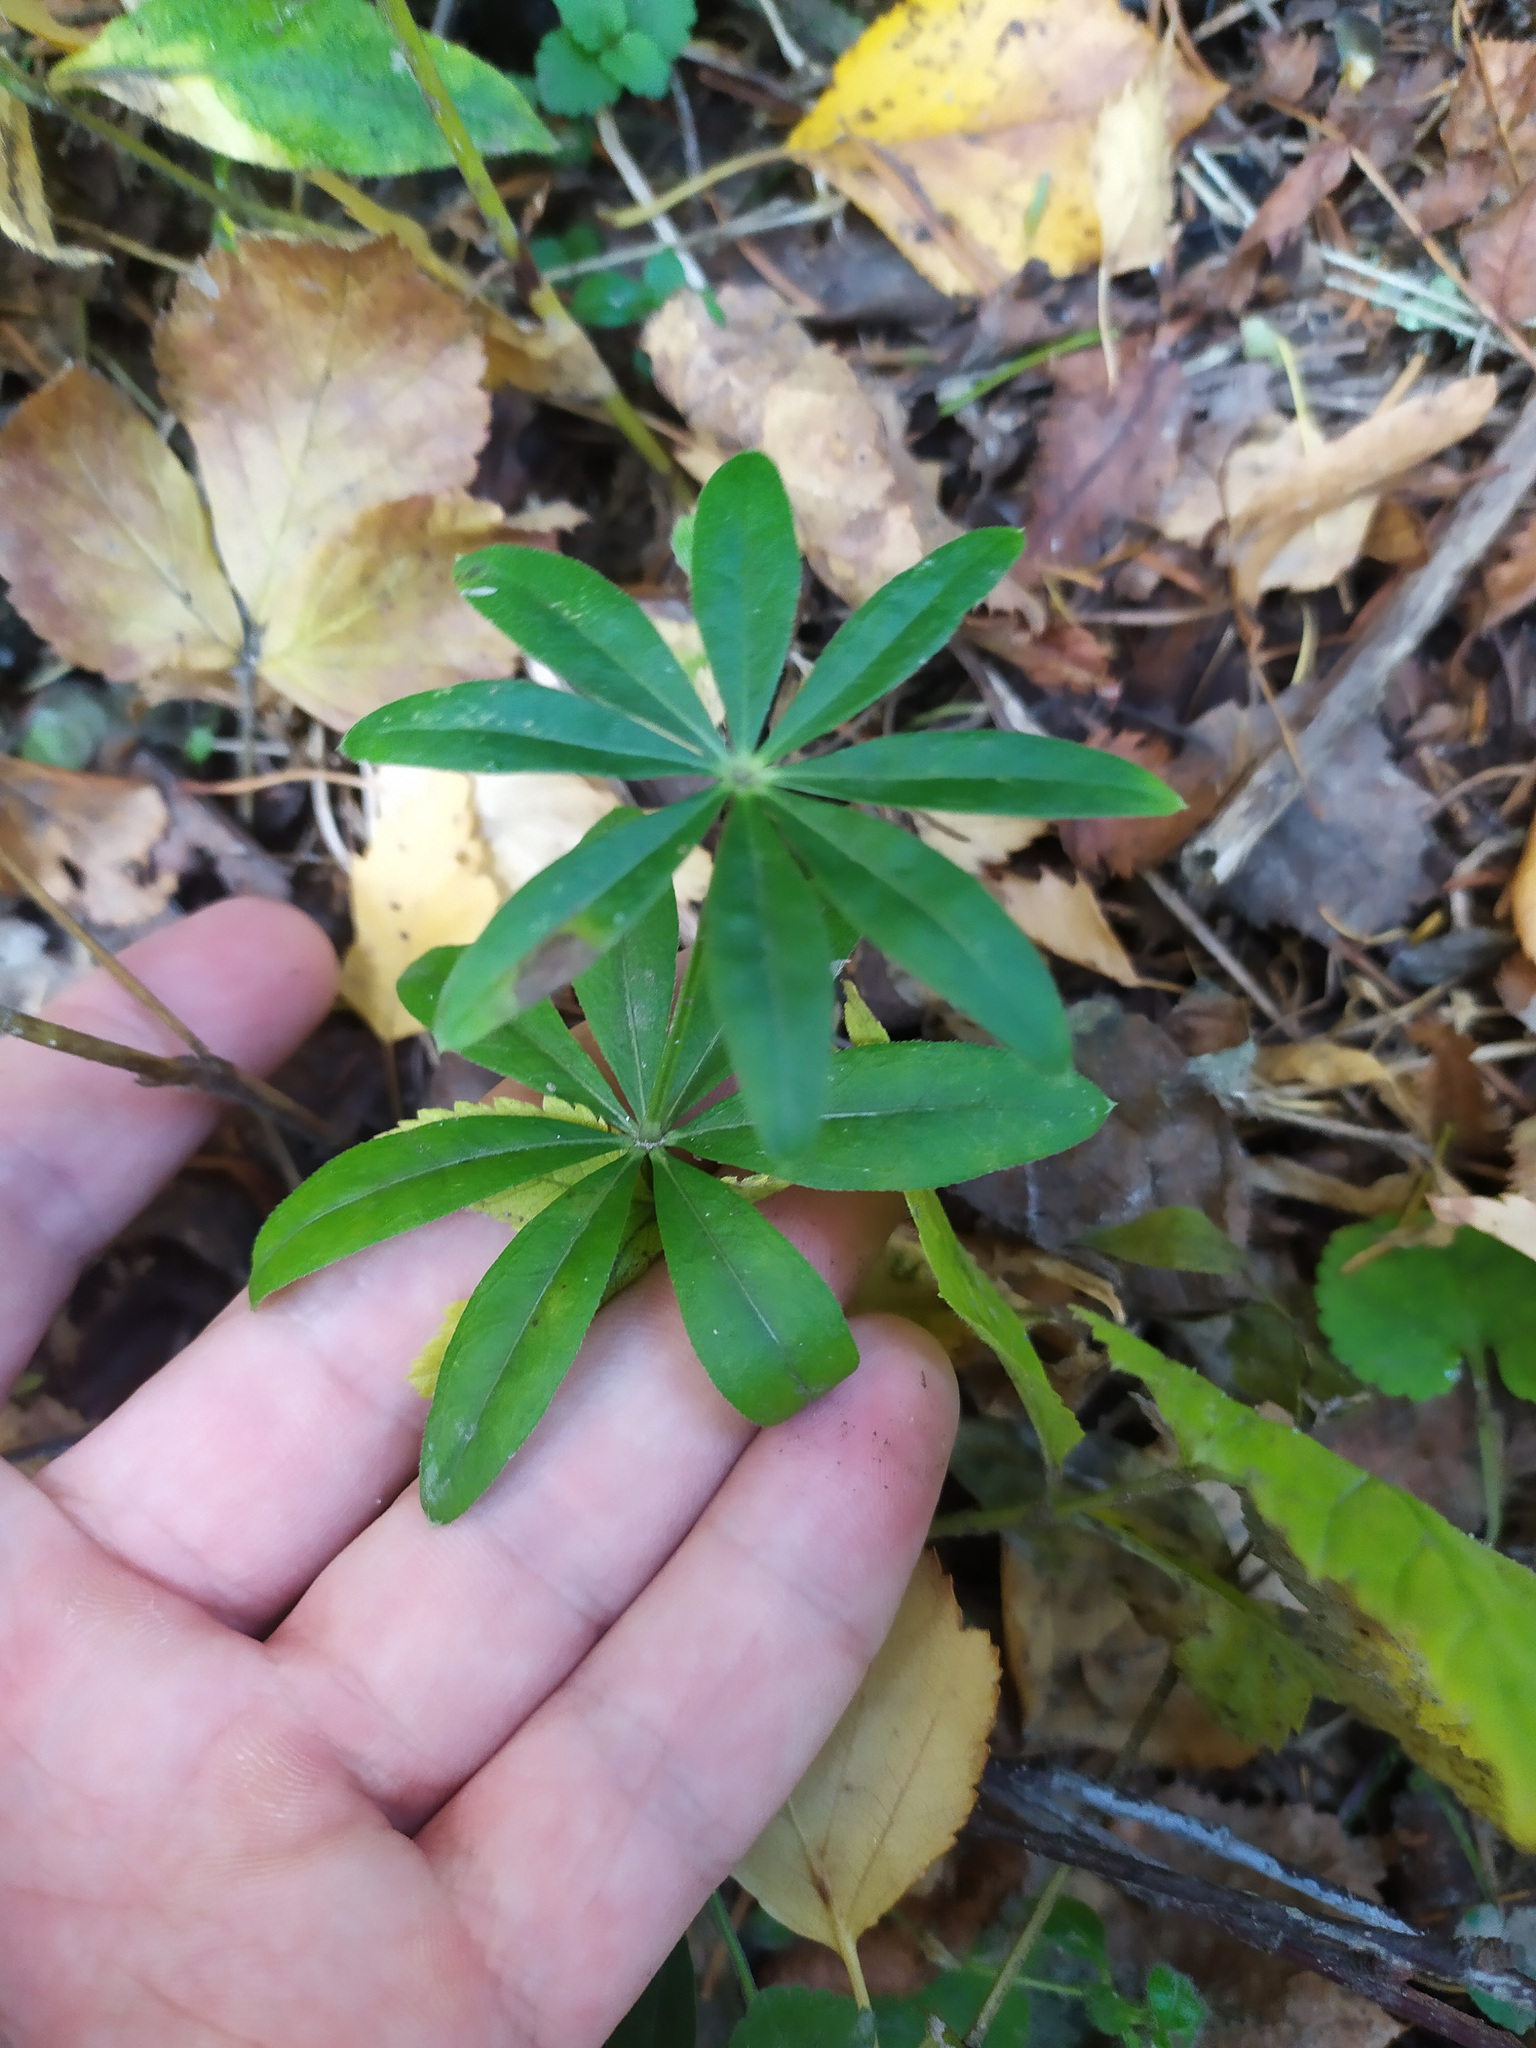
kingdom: Plantae
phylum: Tracheophyta
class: Magnoliopsida
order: Gentianales
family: Rubiaceae
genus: Galium
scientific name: Galium odoratum
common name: Sweet woodruff
